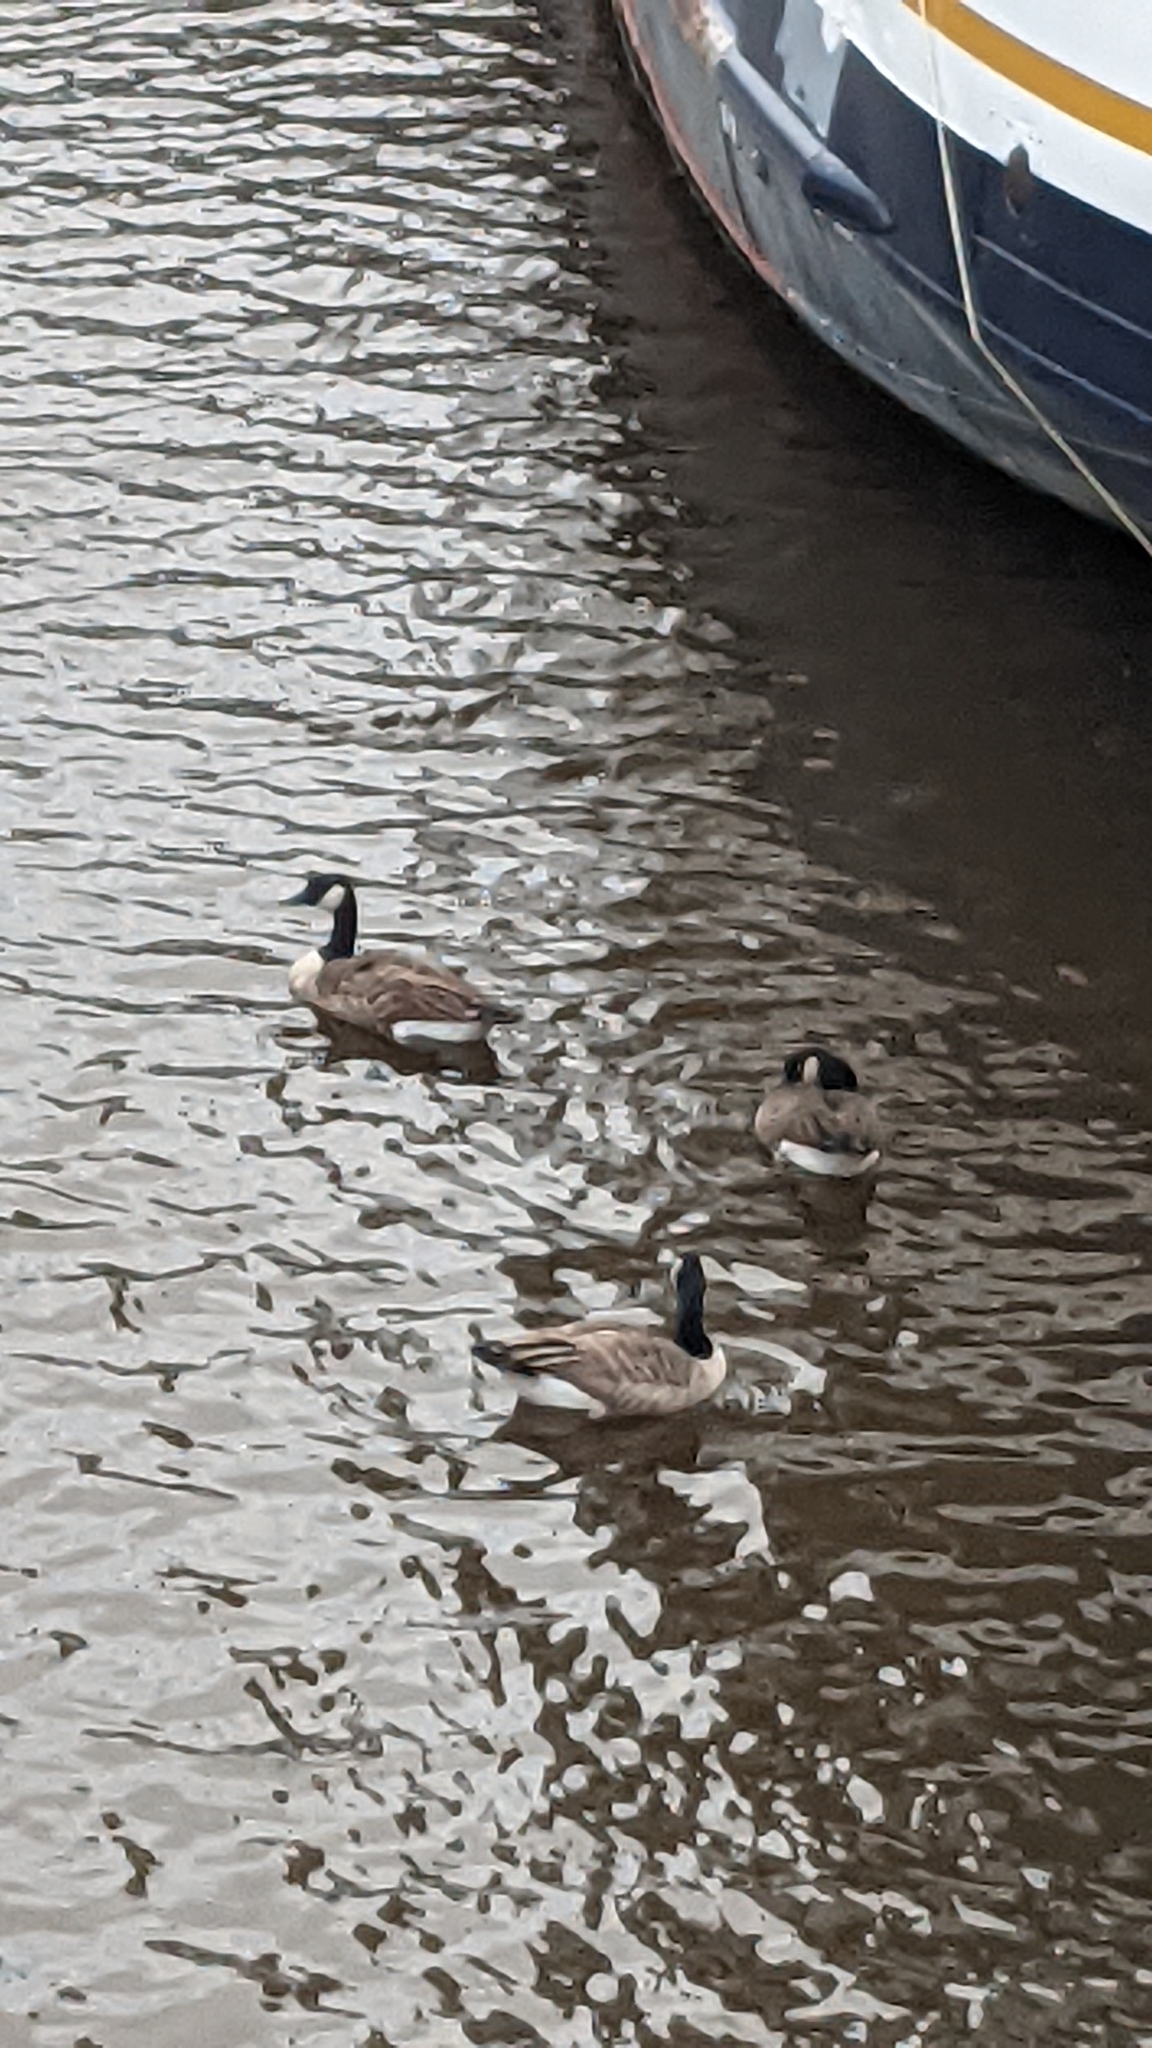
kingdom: Animalia
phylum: Chordata
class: Aves
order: Anseriformes
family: Anatidae
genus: Branta
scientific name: Branta canadensis
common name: Canada goose
